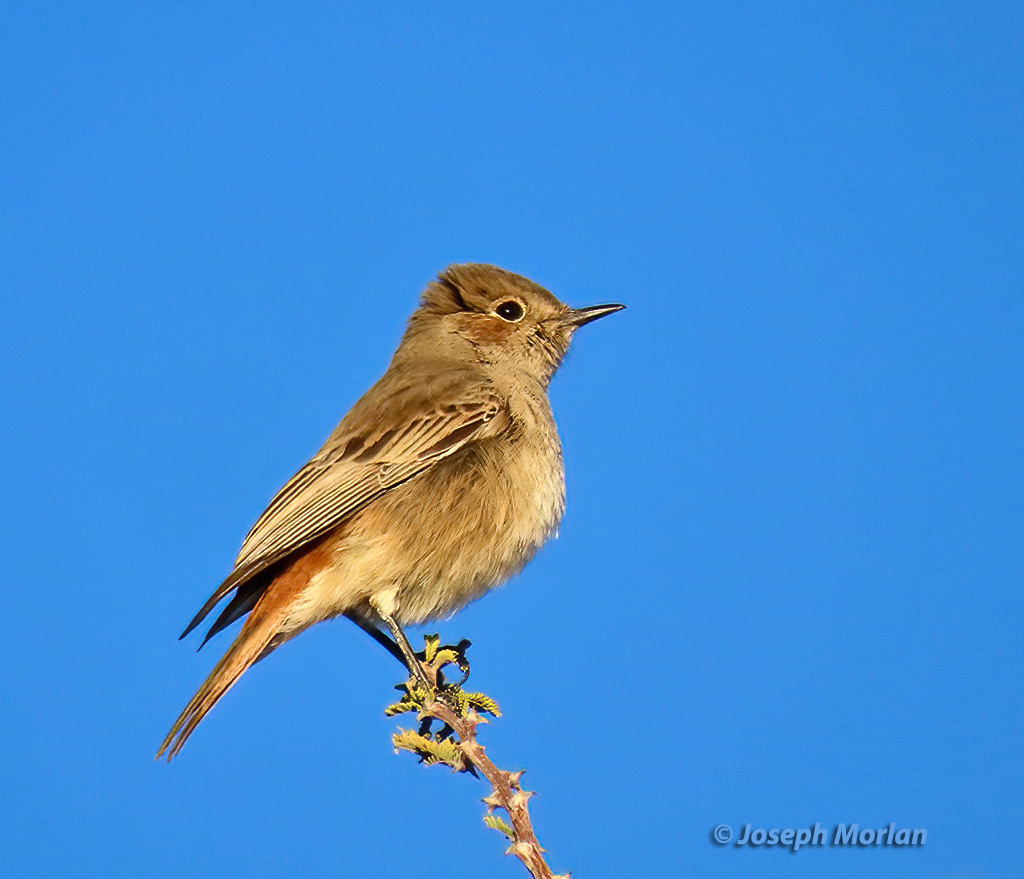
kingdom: Animalia
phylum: Chordata
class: Aves
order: Passeriformes
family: Muscicapidae
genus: Oenanthe
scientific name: Oenanthe familiaris
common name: Familiar chat
